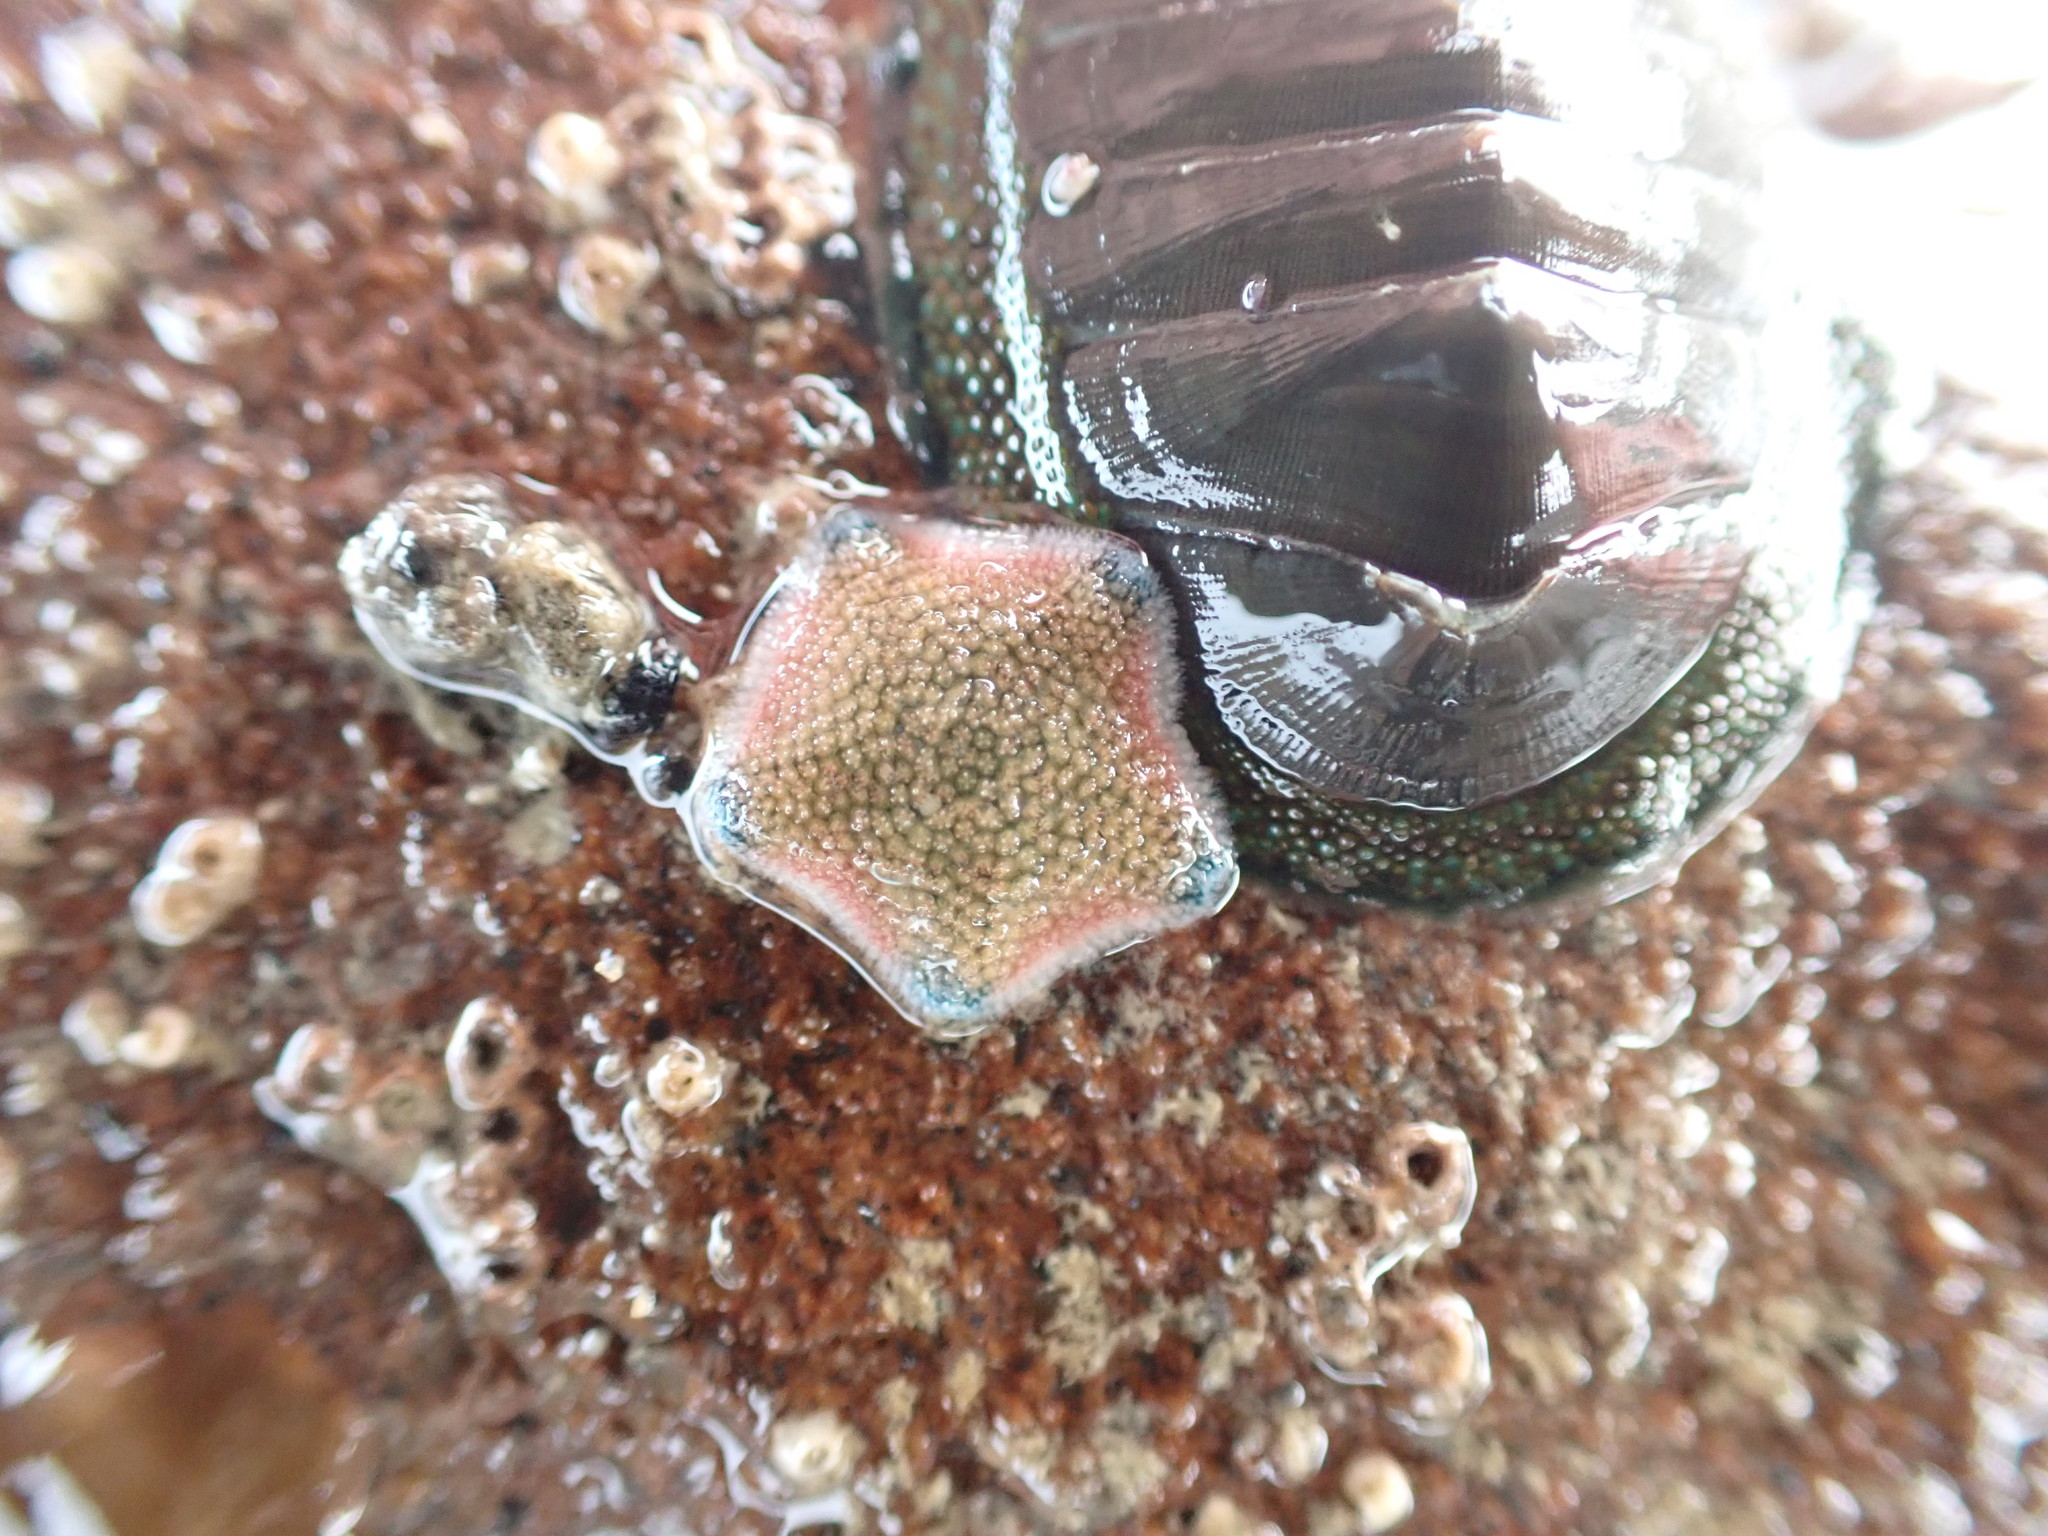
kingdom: Animalia
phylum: Echinodermata
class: Asteroidea
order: Valvatida
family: Asterinidae
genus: Patiriella
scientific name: Patiriella regularis
